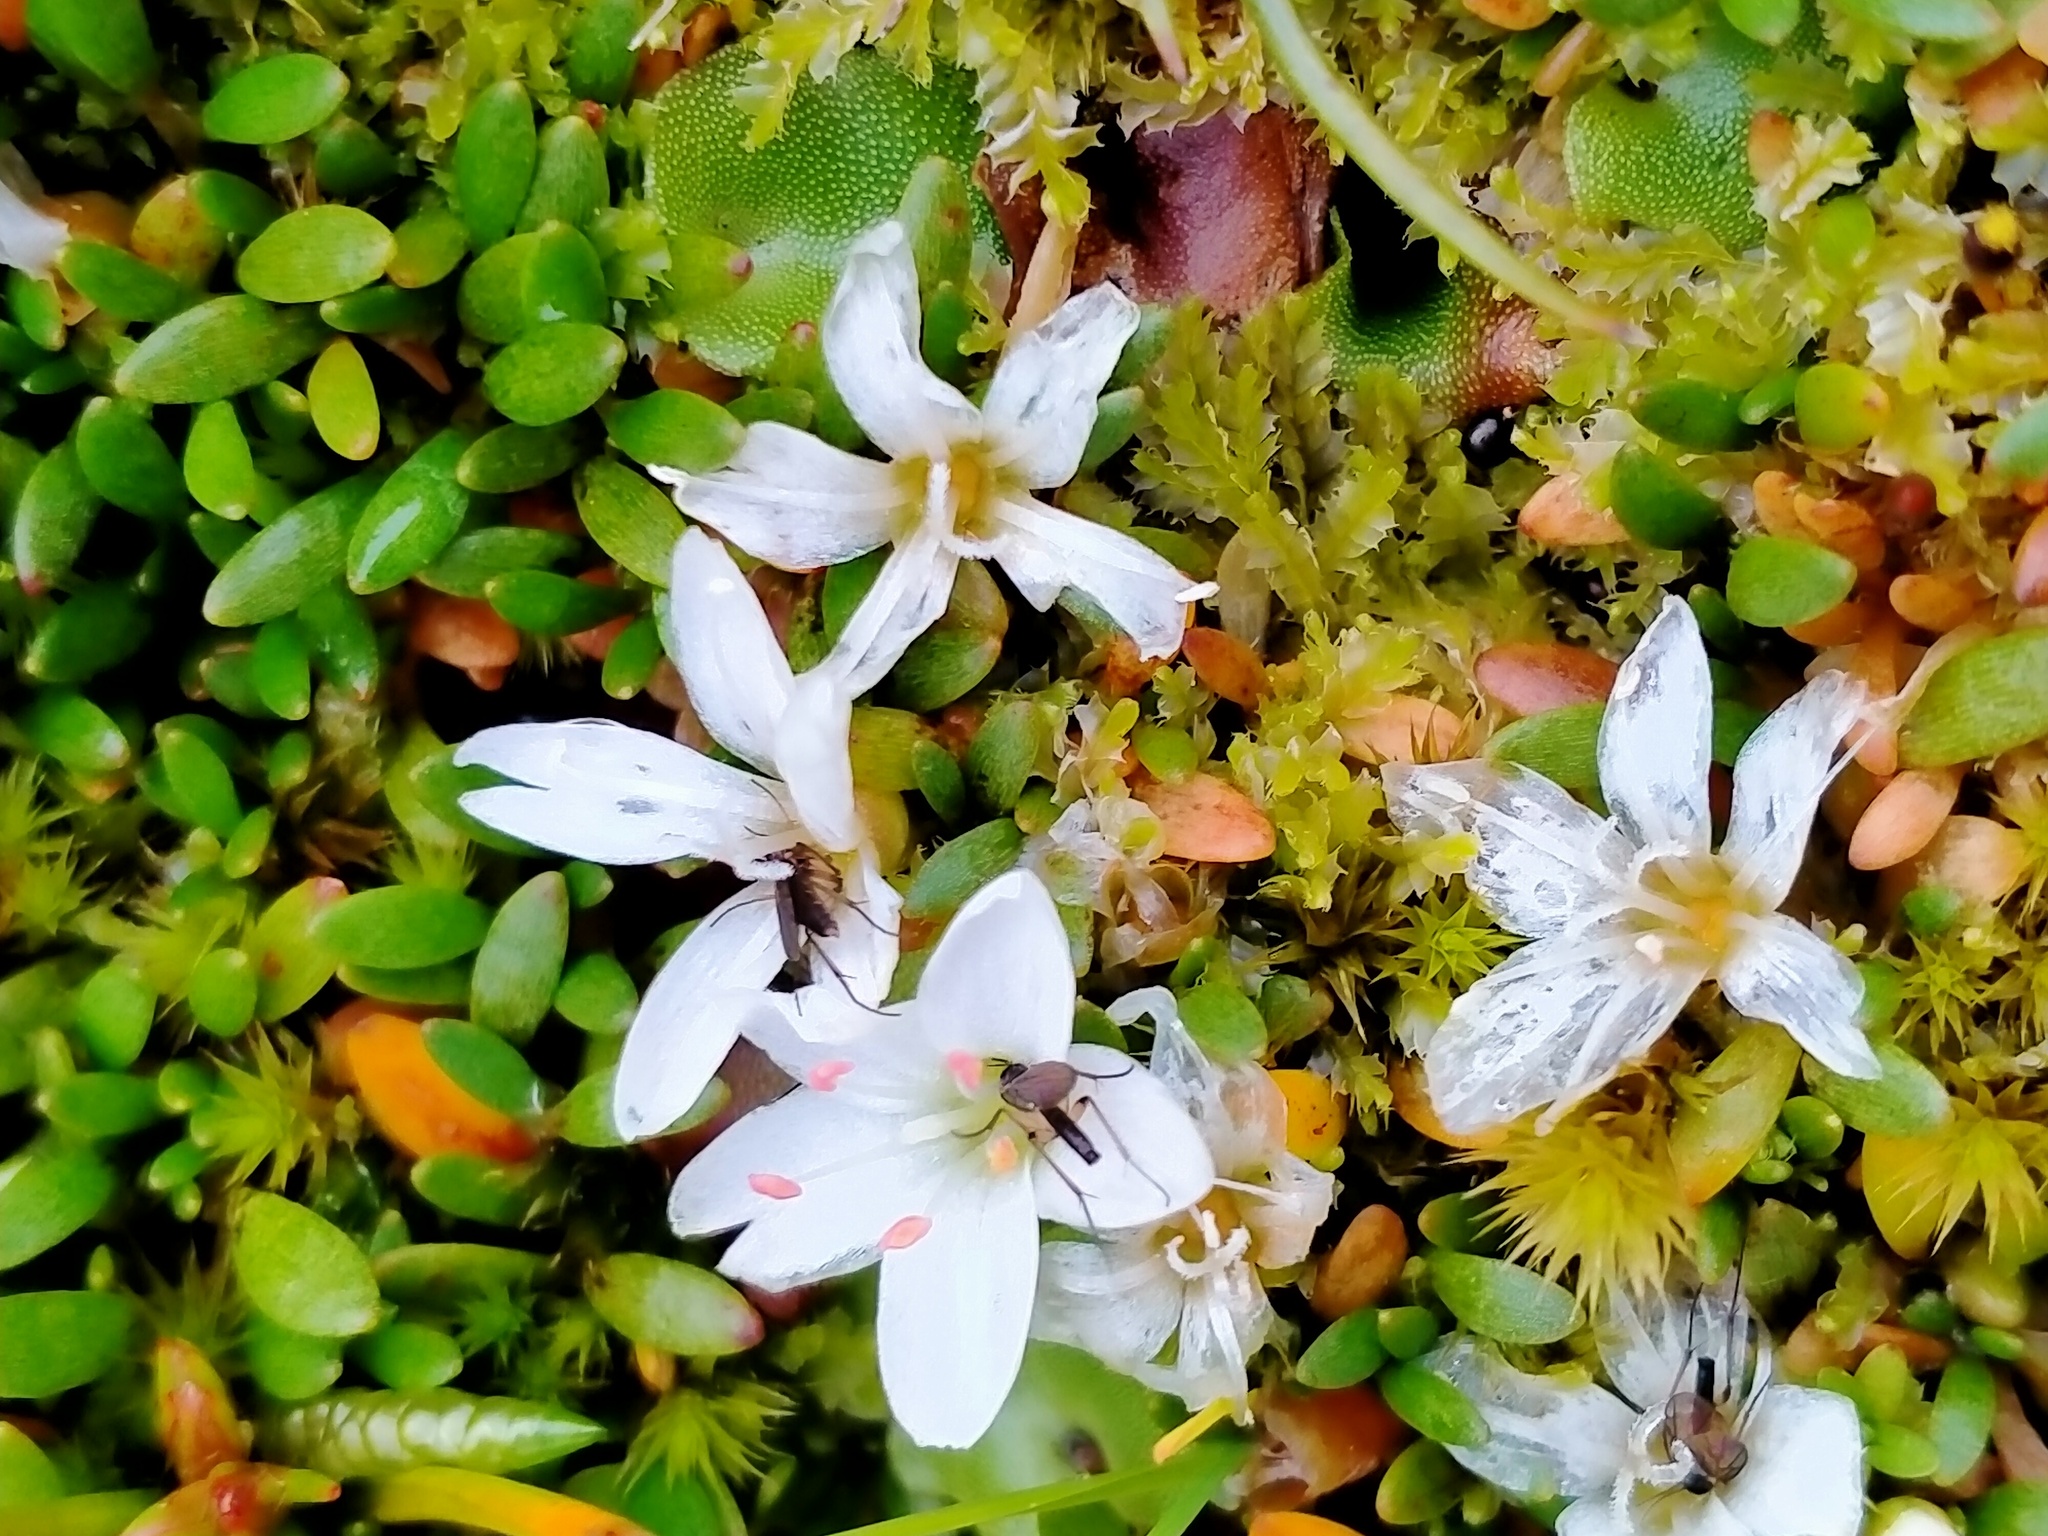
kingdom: Plantae
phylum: Tracheophyta
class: Magnoliopsida
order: Ericales
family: Primulaceae
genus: Samolus
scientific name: Samolus repens
